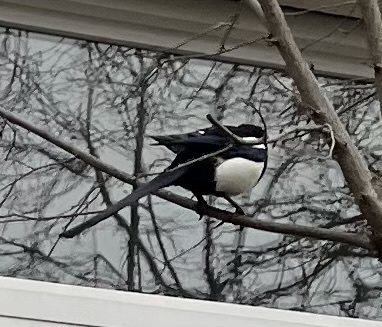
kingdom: Animalia
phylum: Chordata
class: Aves
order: Passeriformes
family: Corvidae
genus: Pica
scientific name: Pica pica
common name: Eurasian magpie
